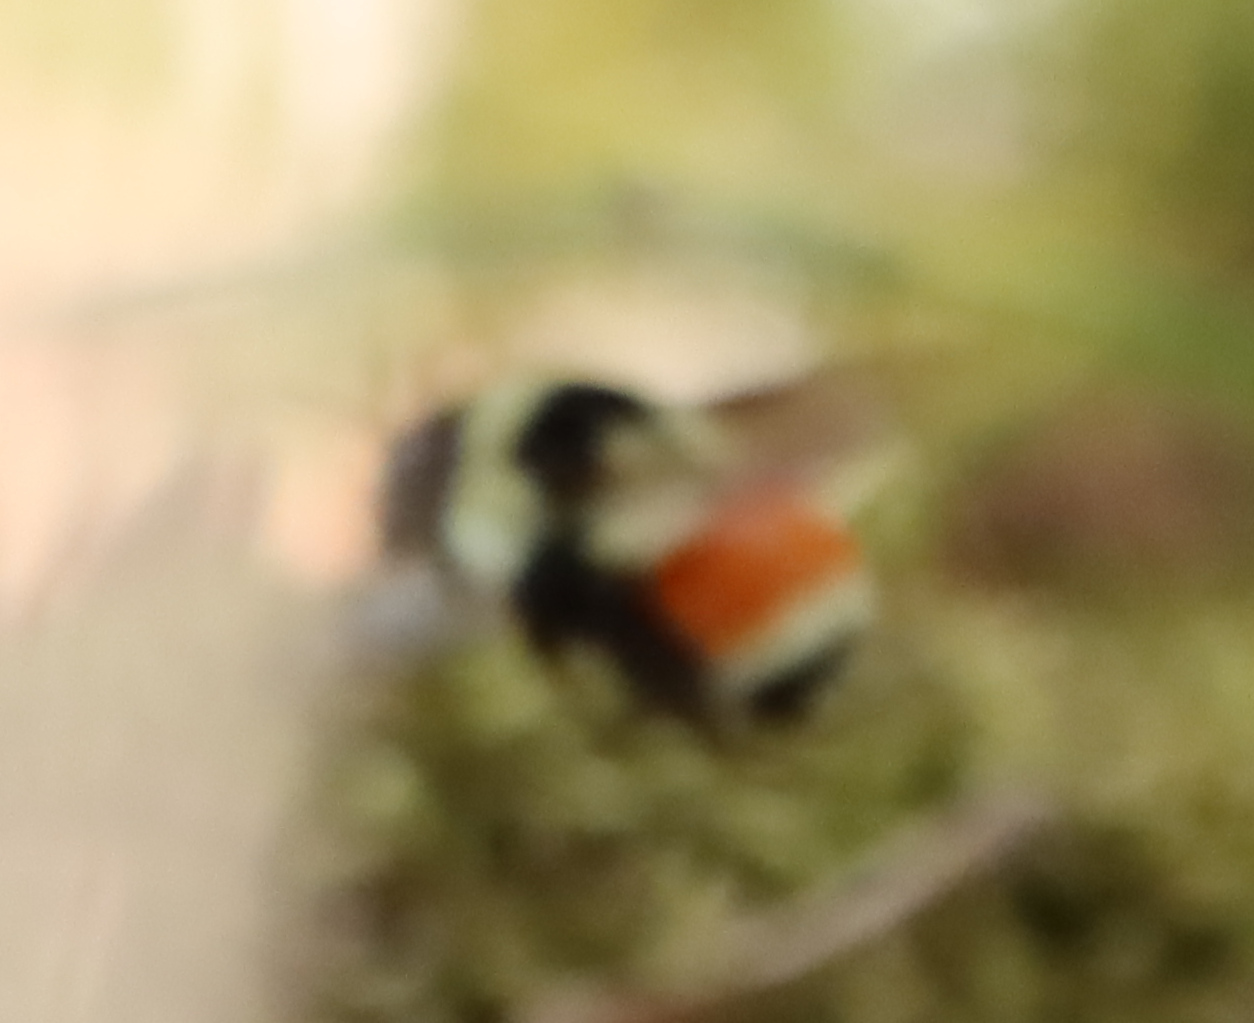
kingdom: Animalia
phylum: Arthropoda
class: Insecta
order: Hymenoptera
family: Apidae
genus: Bombus
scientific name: Bombus ternarius
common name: Tri-colored bumble bee
